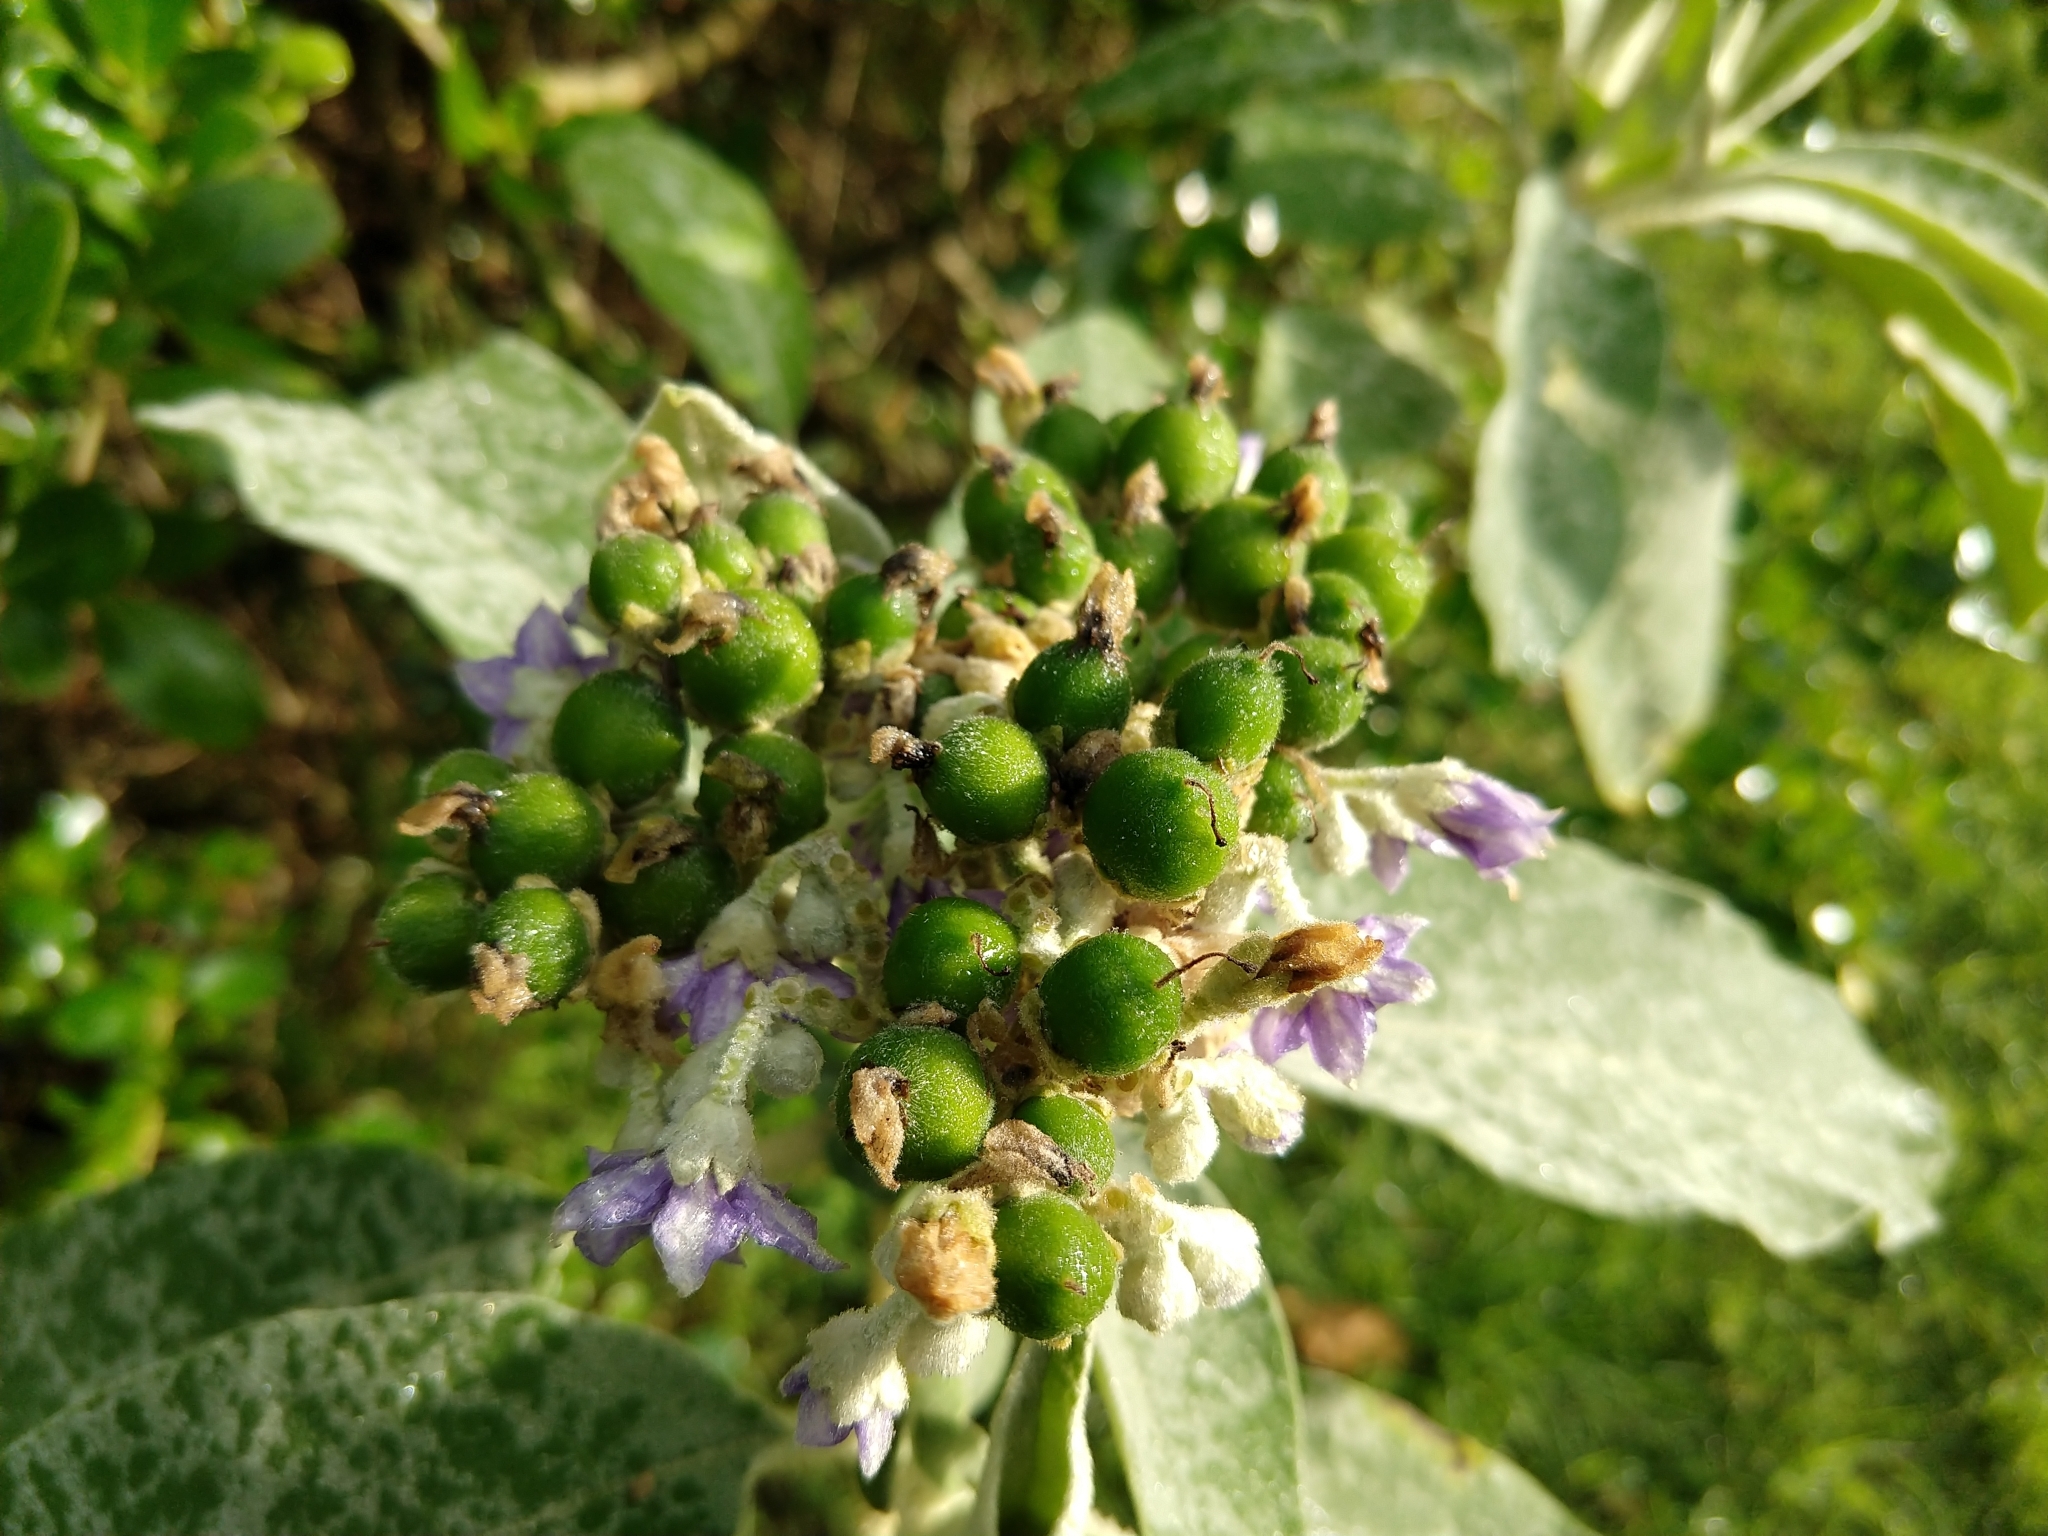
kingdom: Plantae
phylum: Tracheophyta
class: Magnoliopsida
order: Solanales
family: Solanaceae
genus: Solanum
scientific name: Solanum mauritianum
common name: Earleaf nightshade
